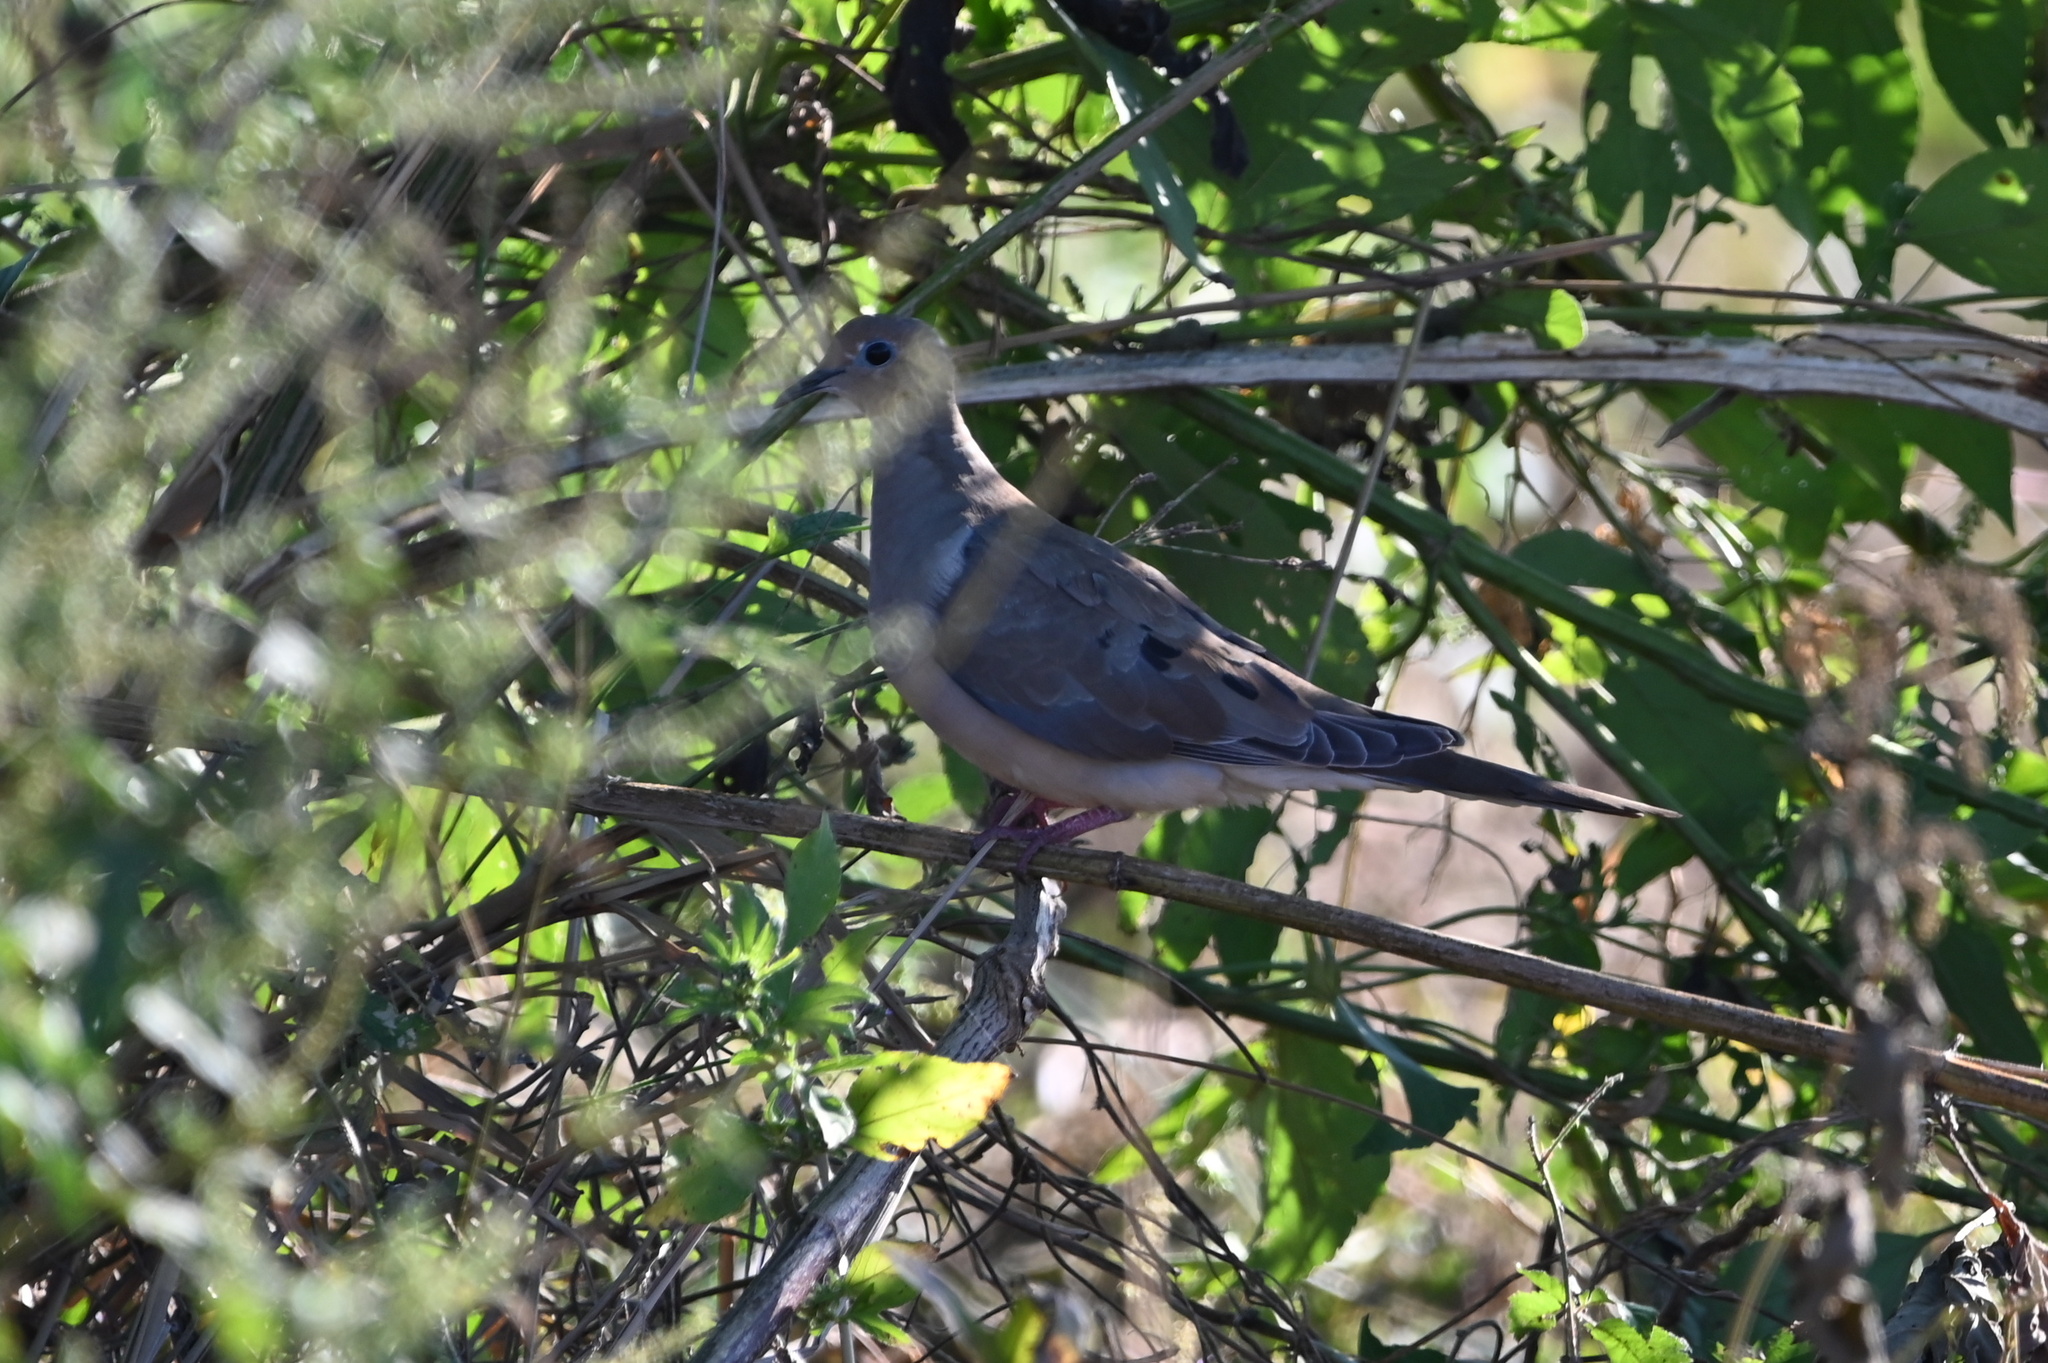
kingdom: Animalia
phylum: Chordata
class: Aves
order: Columbiformes
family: Columbidae
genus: Zenaida
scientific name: Zenaida macroura
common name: Mourning dove
